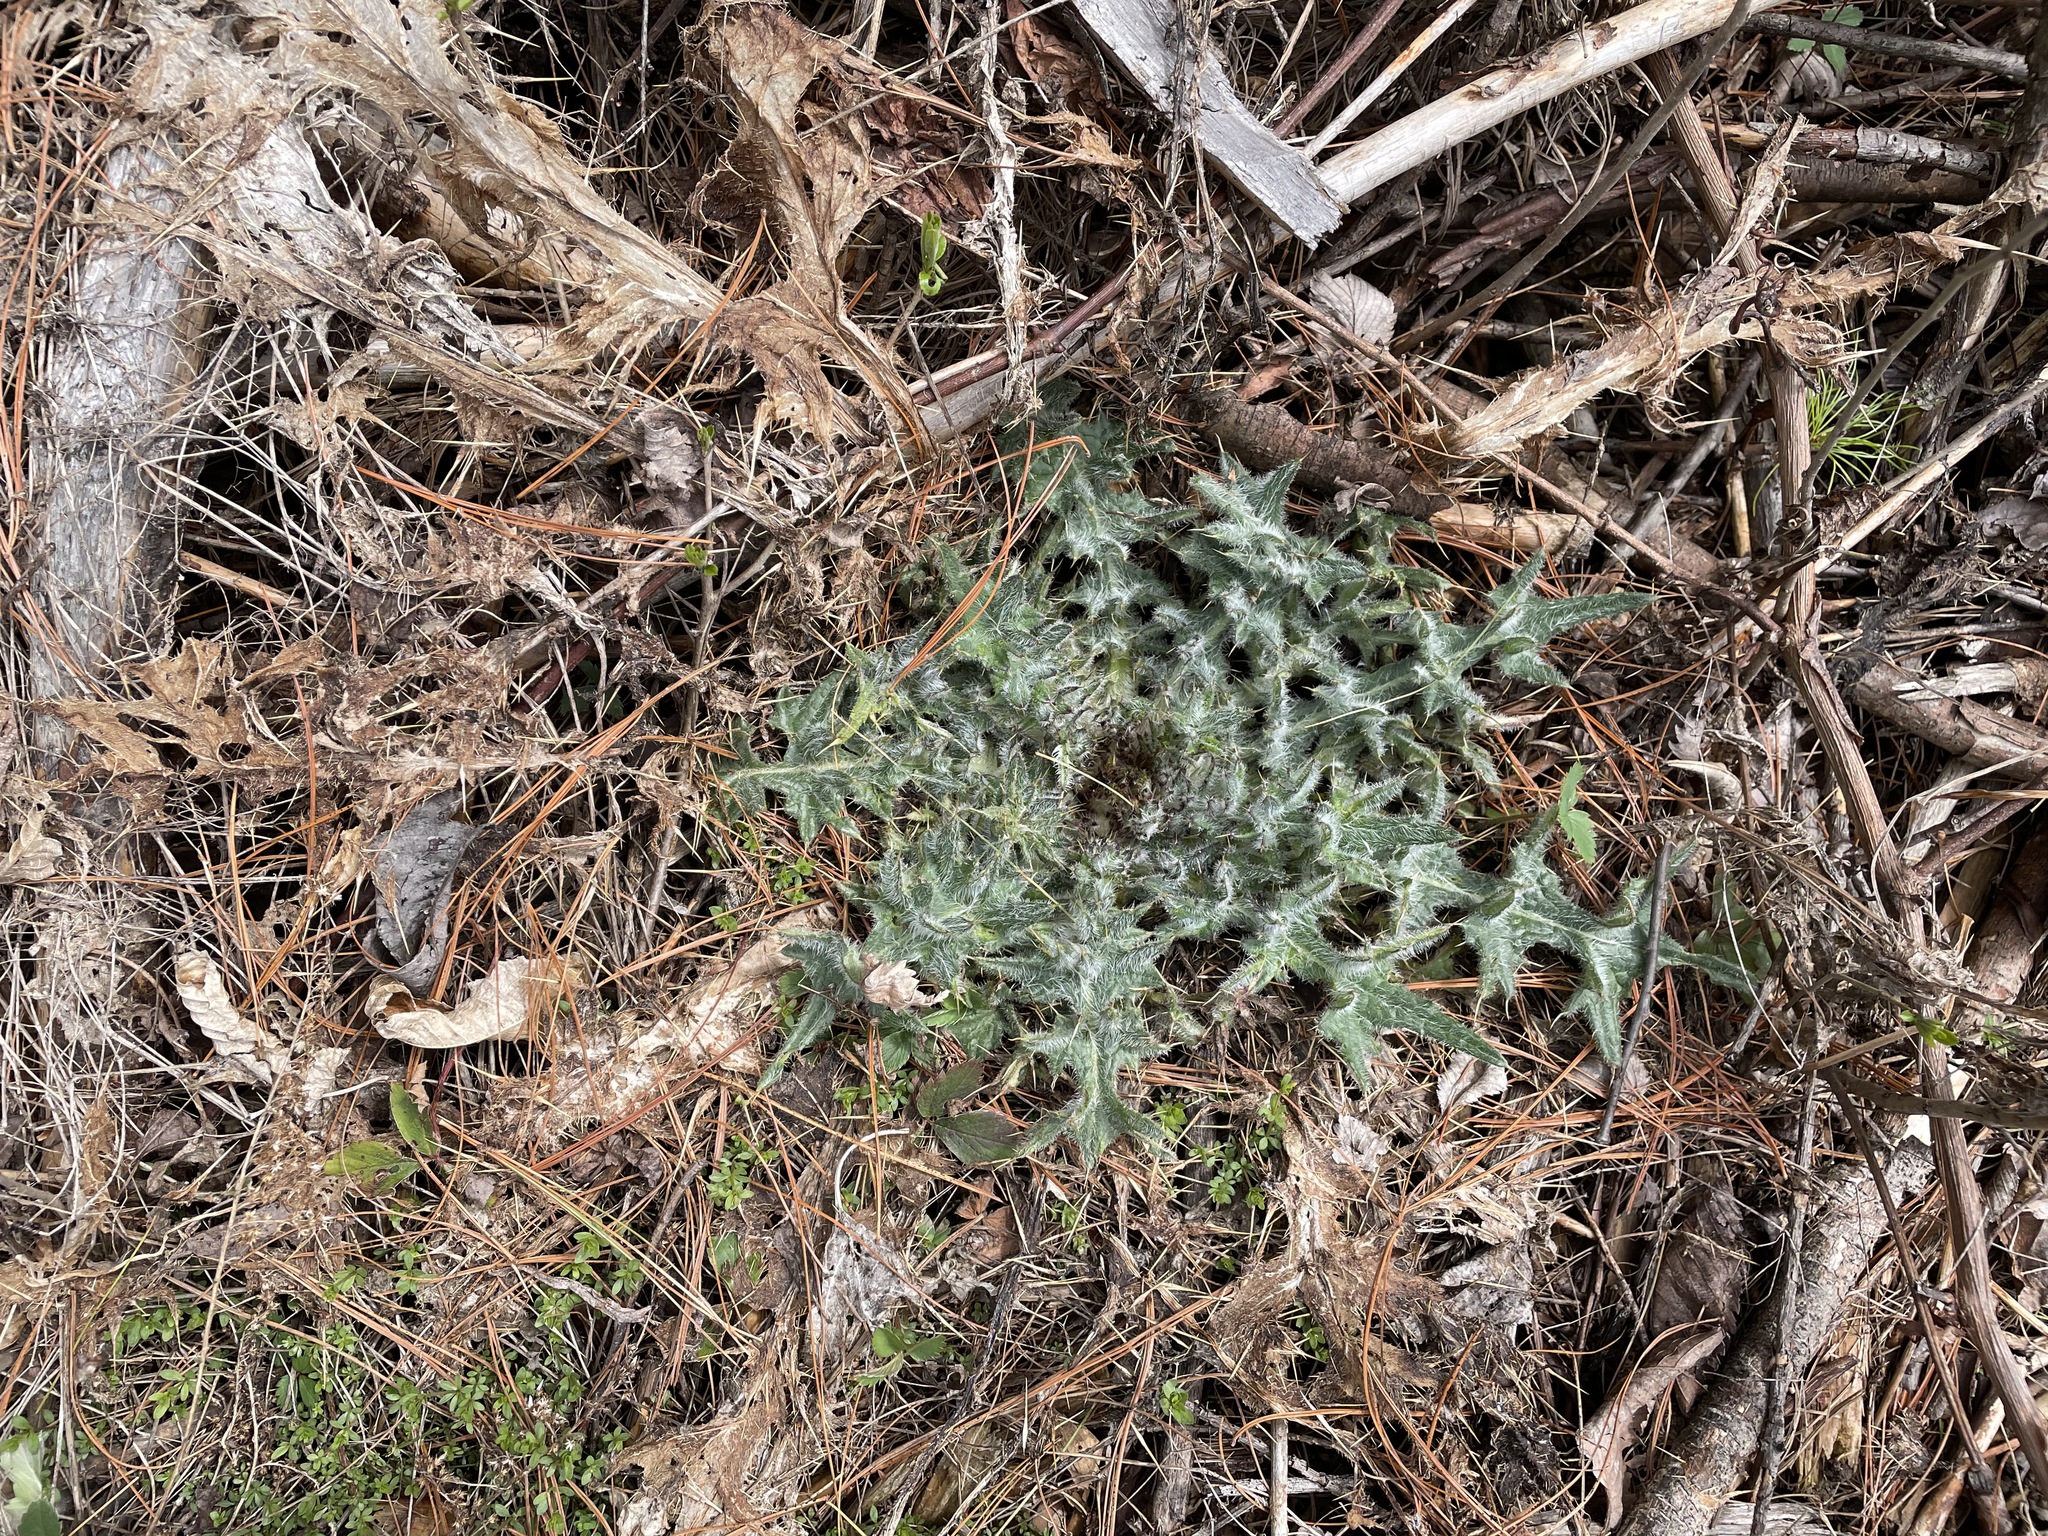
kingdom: Plantae
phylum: Tracheophyta
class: Magnoliopsida
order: Asterales
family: Asteraceae
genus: Cirsium
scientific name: Cirsium vulgare
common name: Bull thistle
